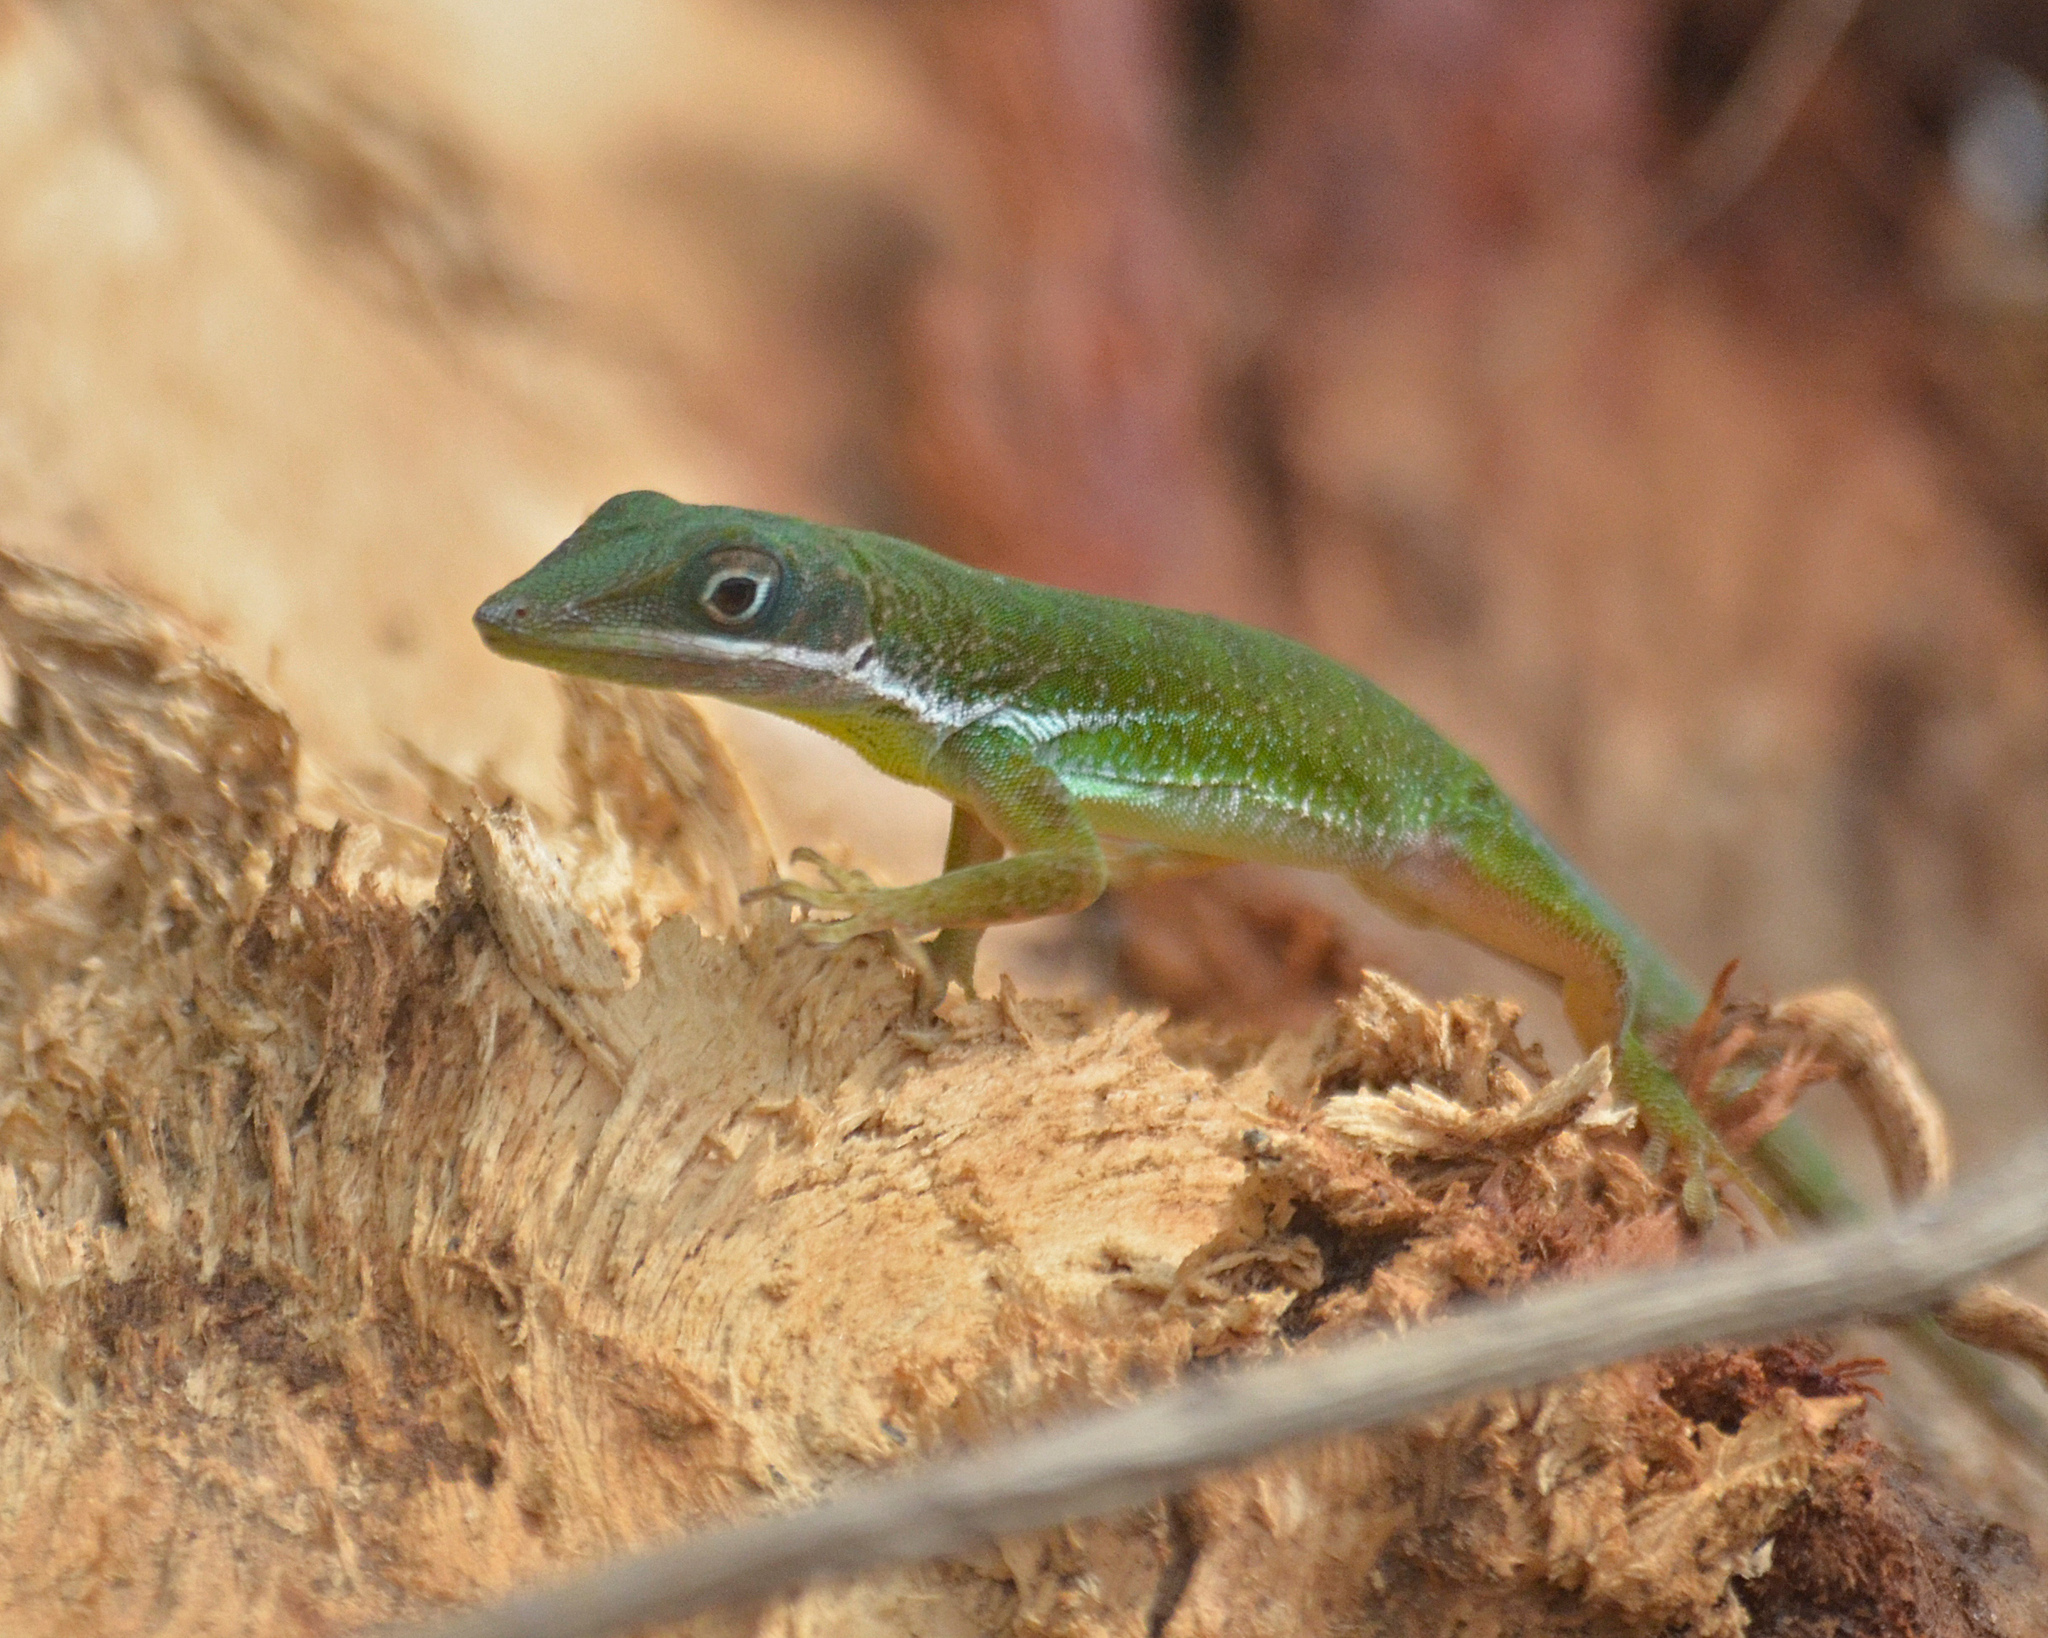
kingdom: Animalia
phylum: Chordata
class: Squamata
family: Dactyloidae
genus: Anolis
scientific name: Anolis viridius
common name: Barahona green anole
